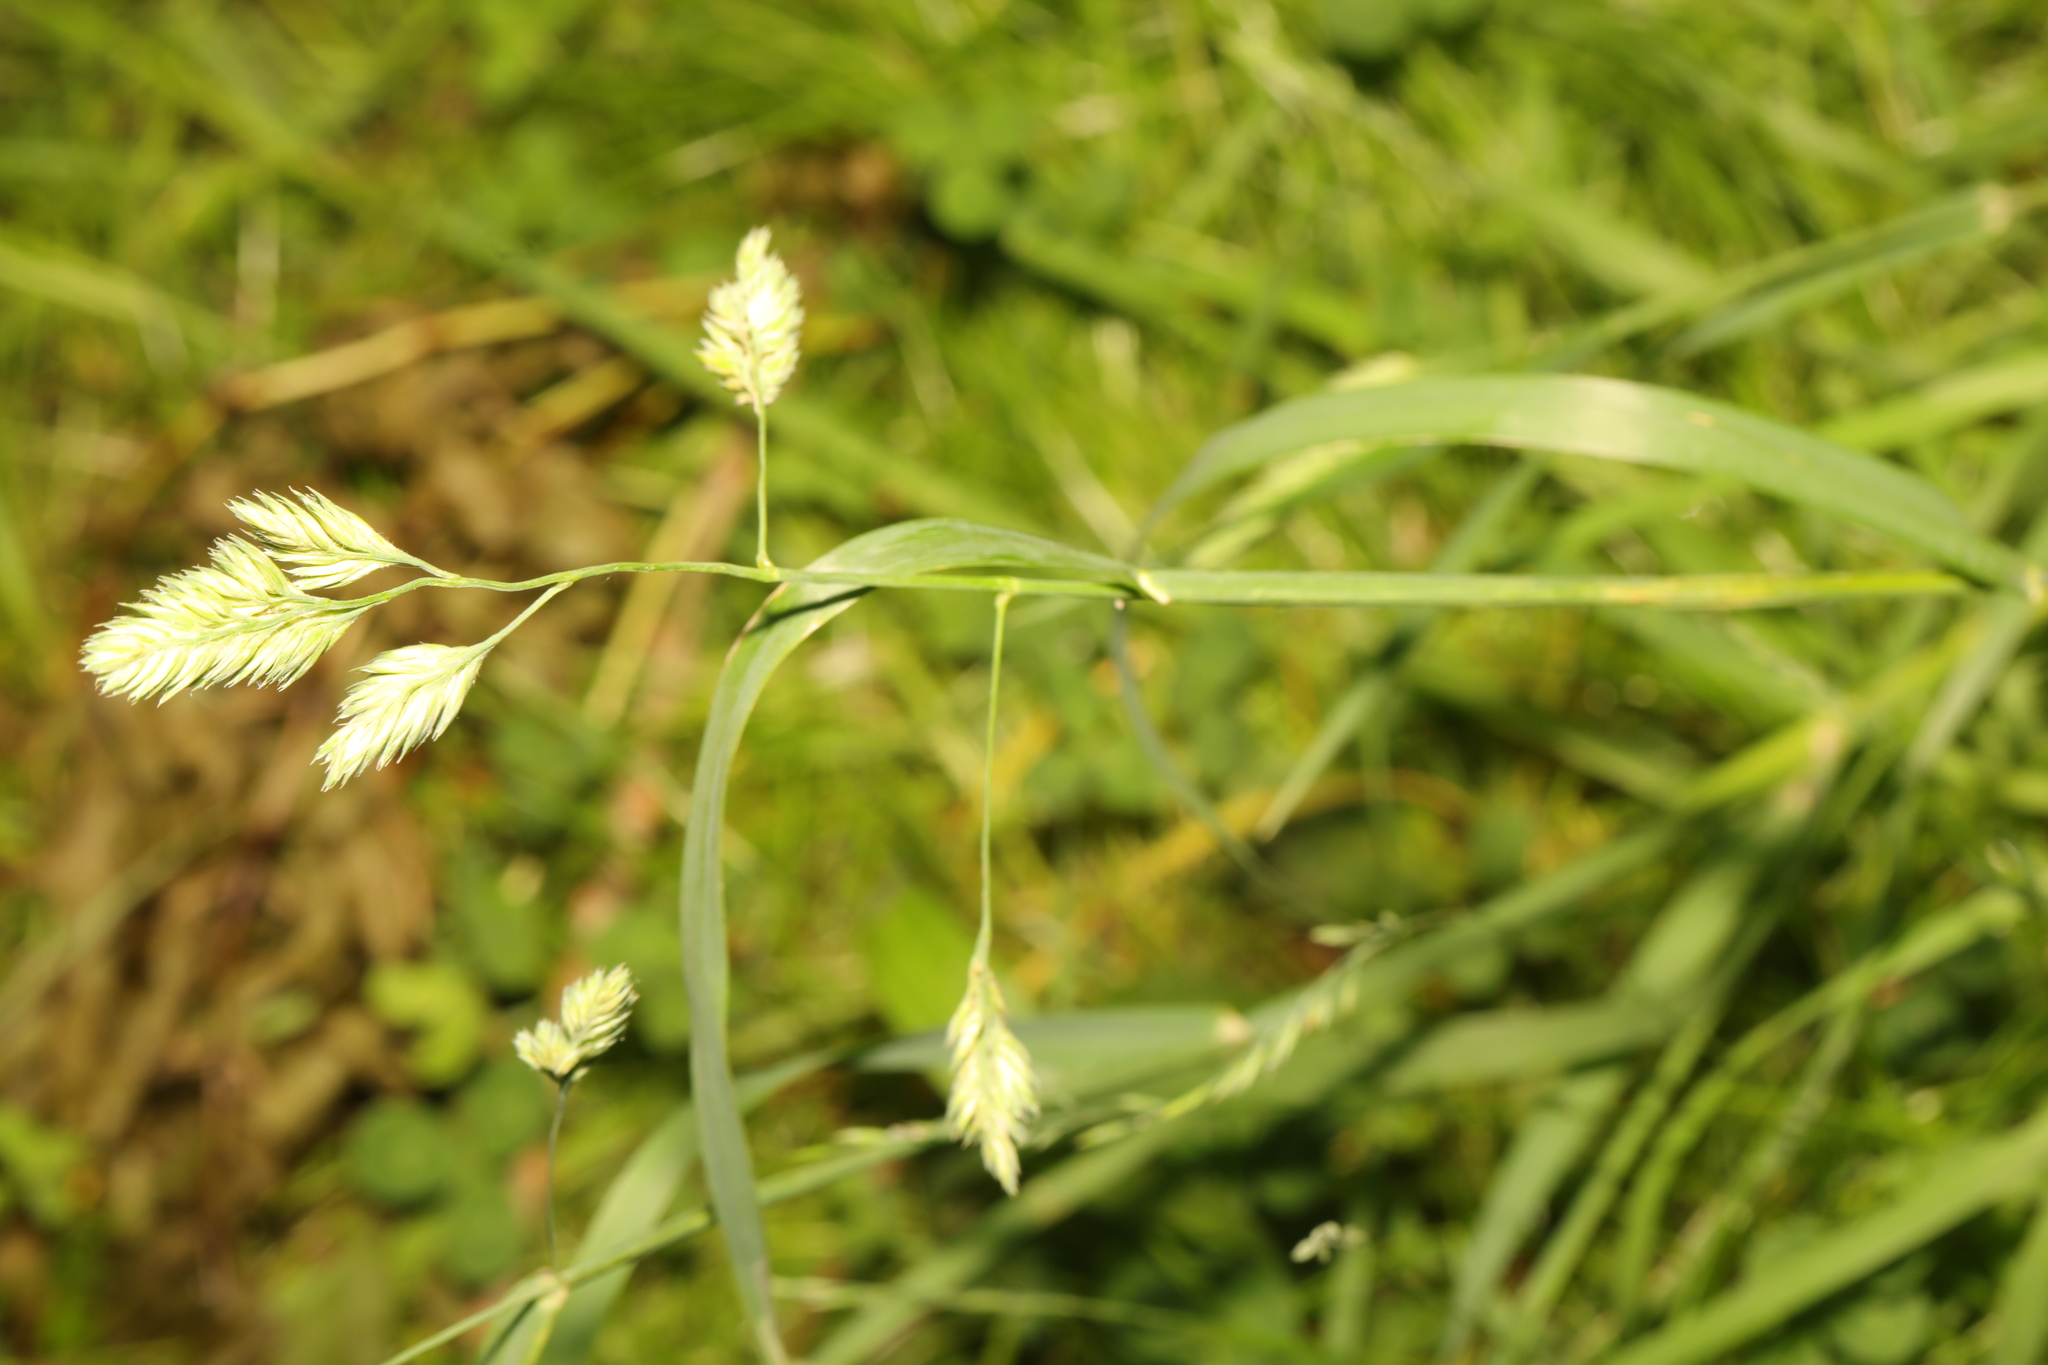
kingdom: Plantae
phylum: Tracheophyta
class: Liliopsida
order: Poales
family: Poaceae
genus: Dactylis
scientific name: Dactylis glomerata
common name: Orchardgrass
